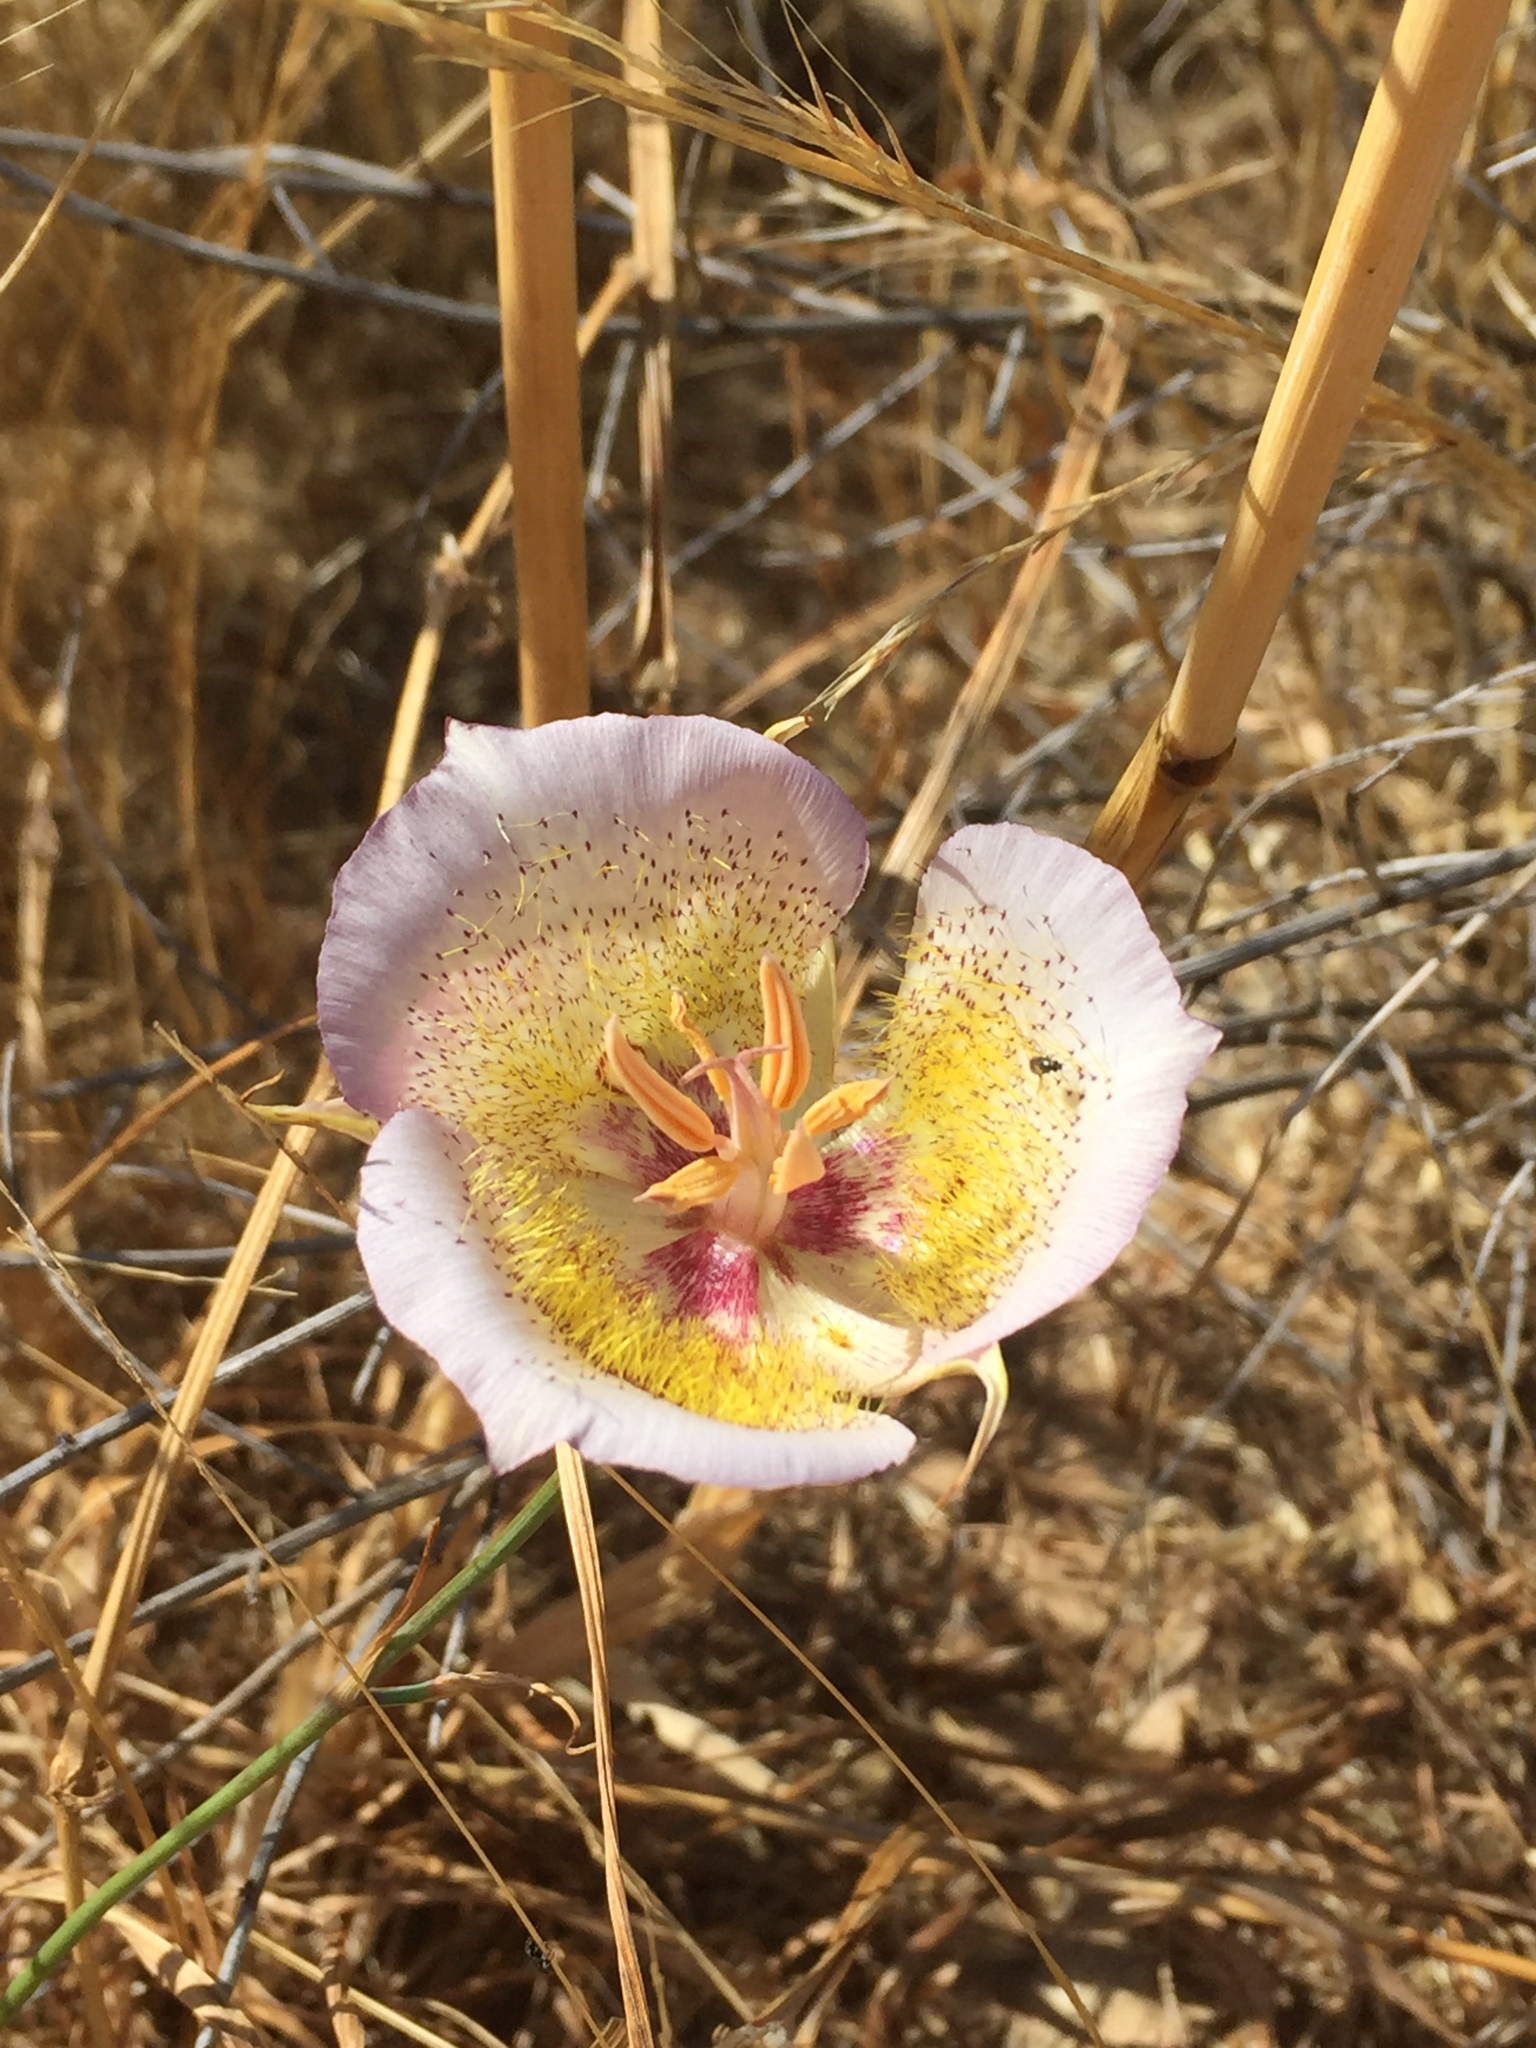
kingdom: Plantae
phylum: Tracheophyta
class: Liliopsida
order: Liliales
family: Liliaceae
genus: Calochortus
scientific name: Calochortus plummerae
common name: Plummer's mariposa-lily
